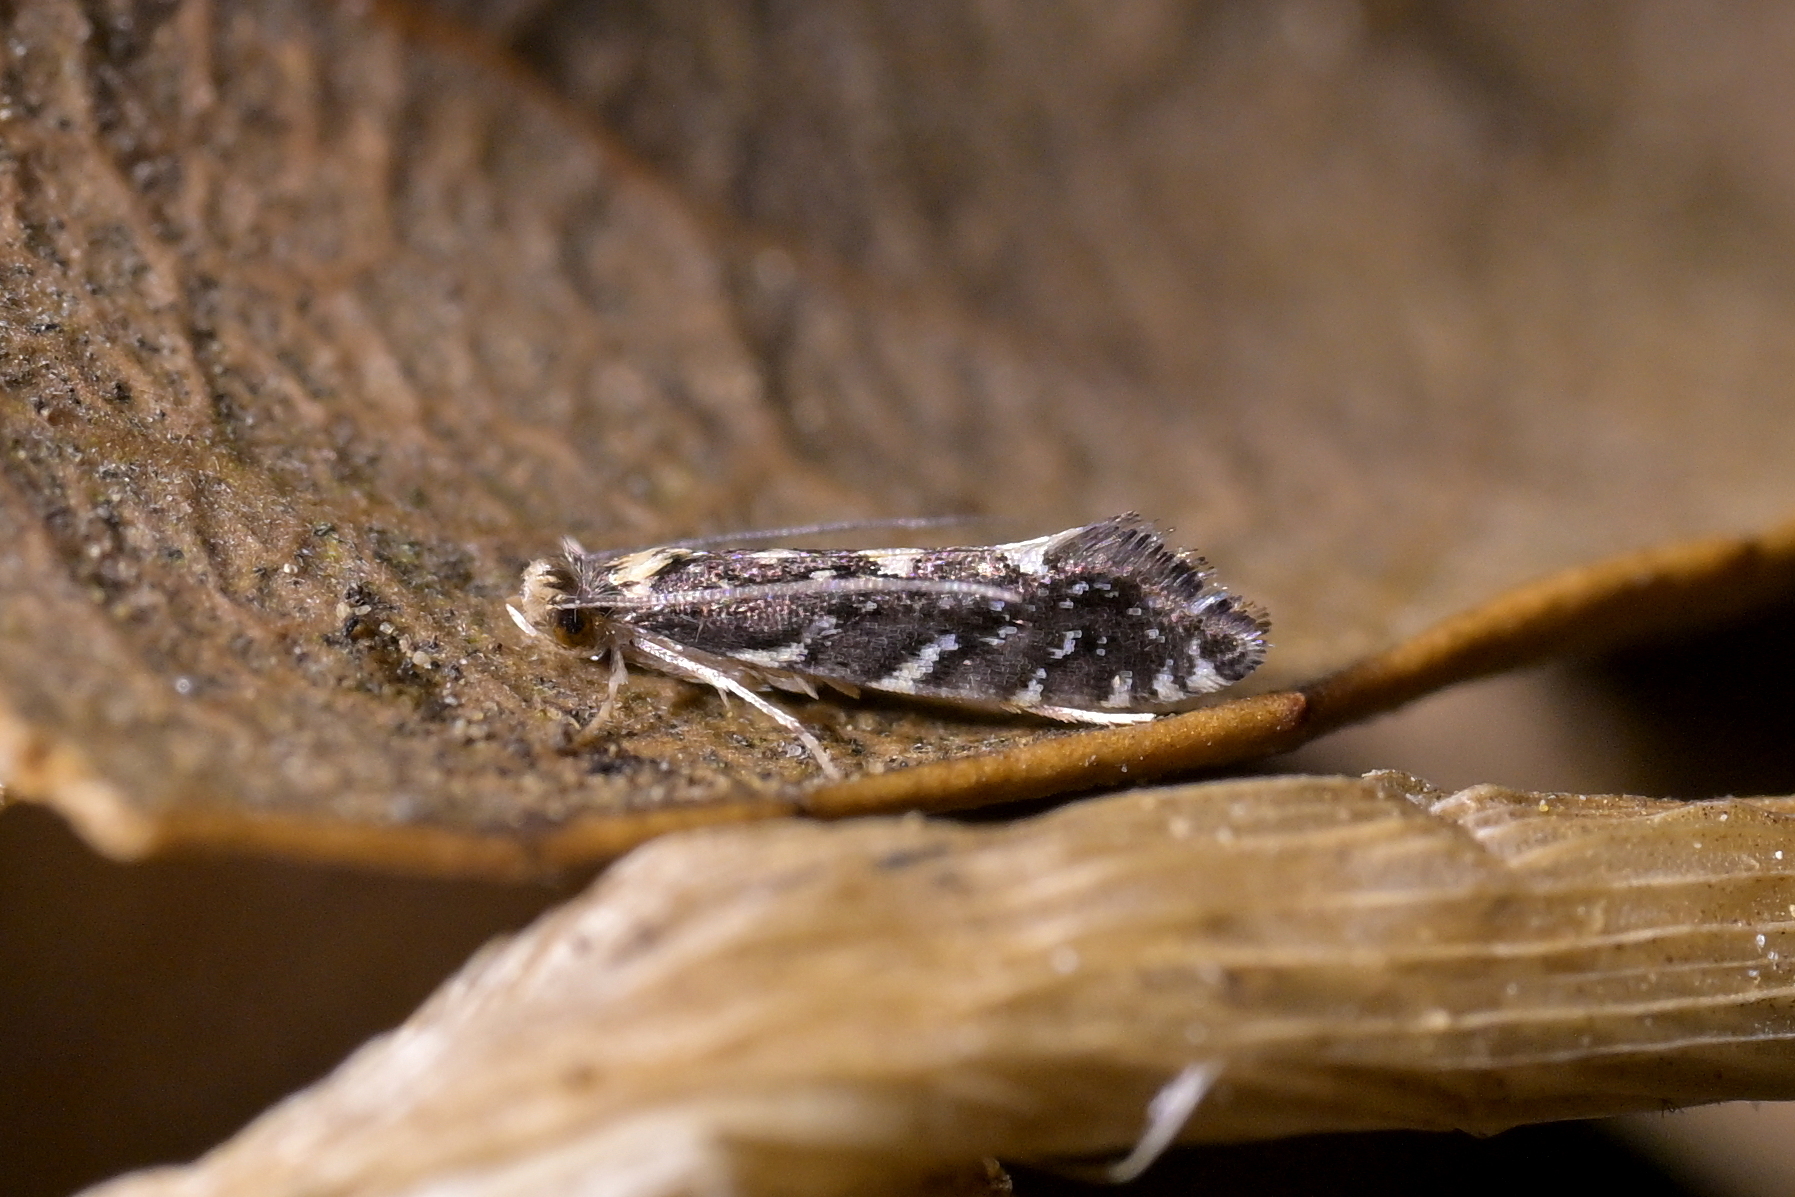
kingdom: Animalia
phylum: Arthropoda
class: Insecta
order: Lepidoptera
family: Tineidae
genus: Tinea
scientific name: Tinea margaritis
